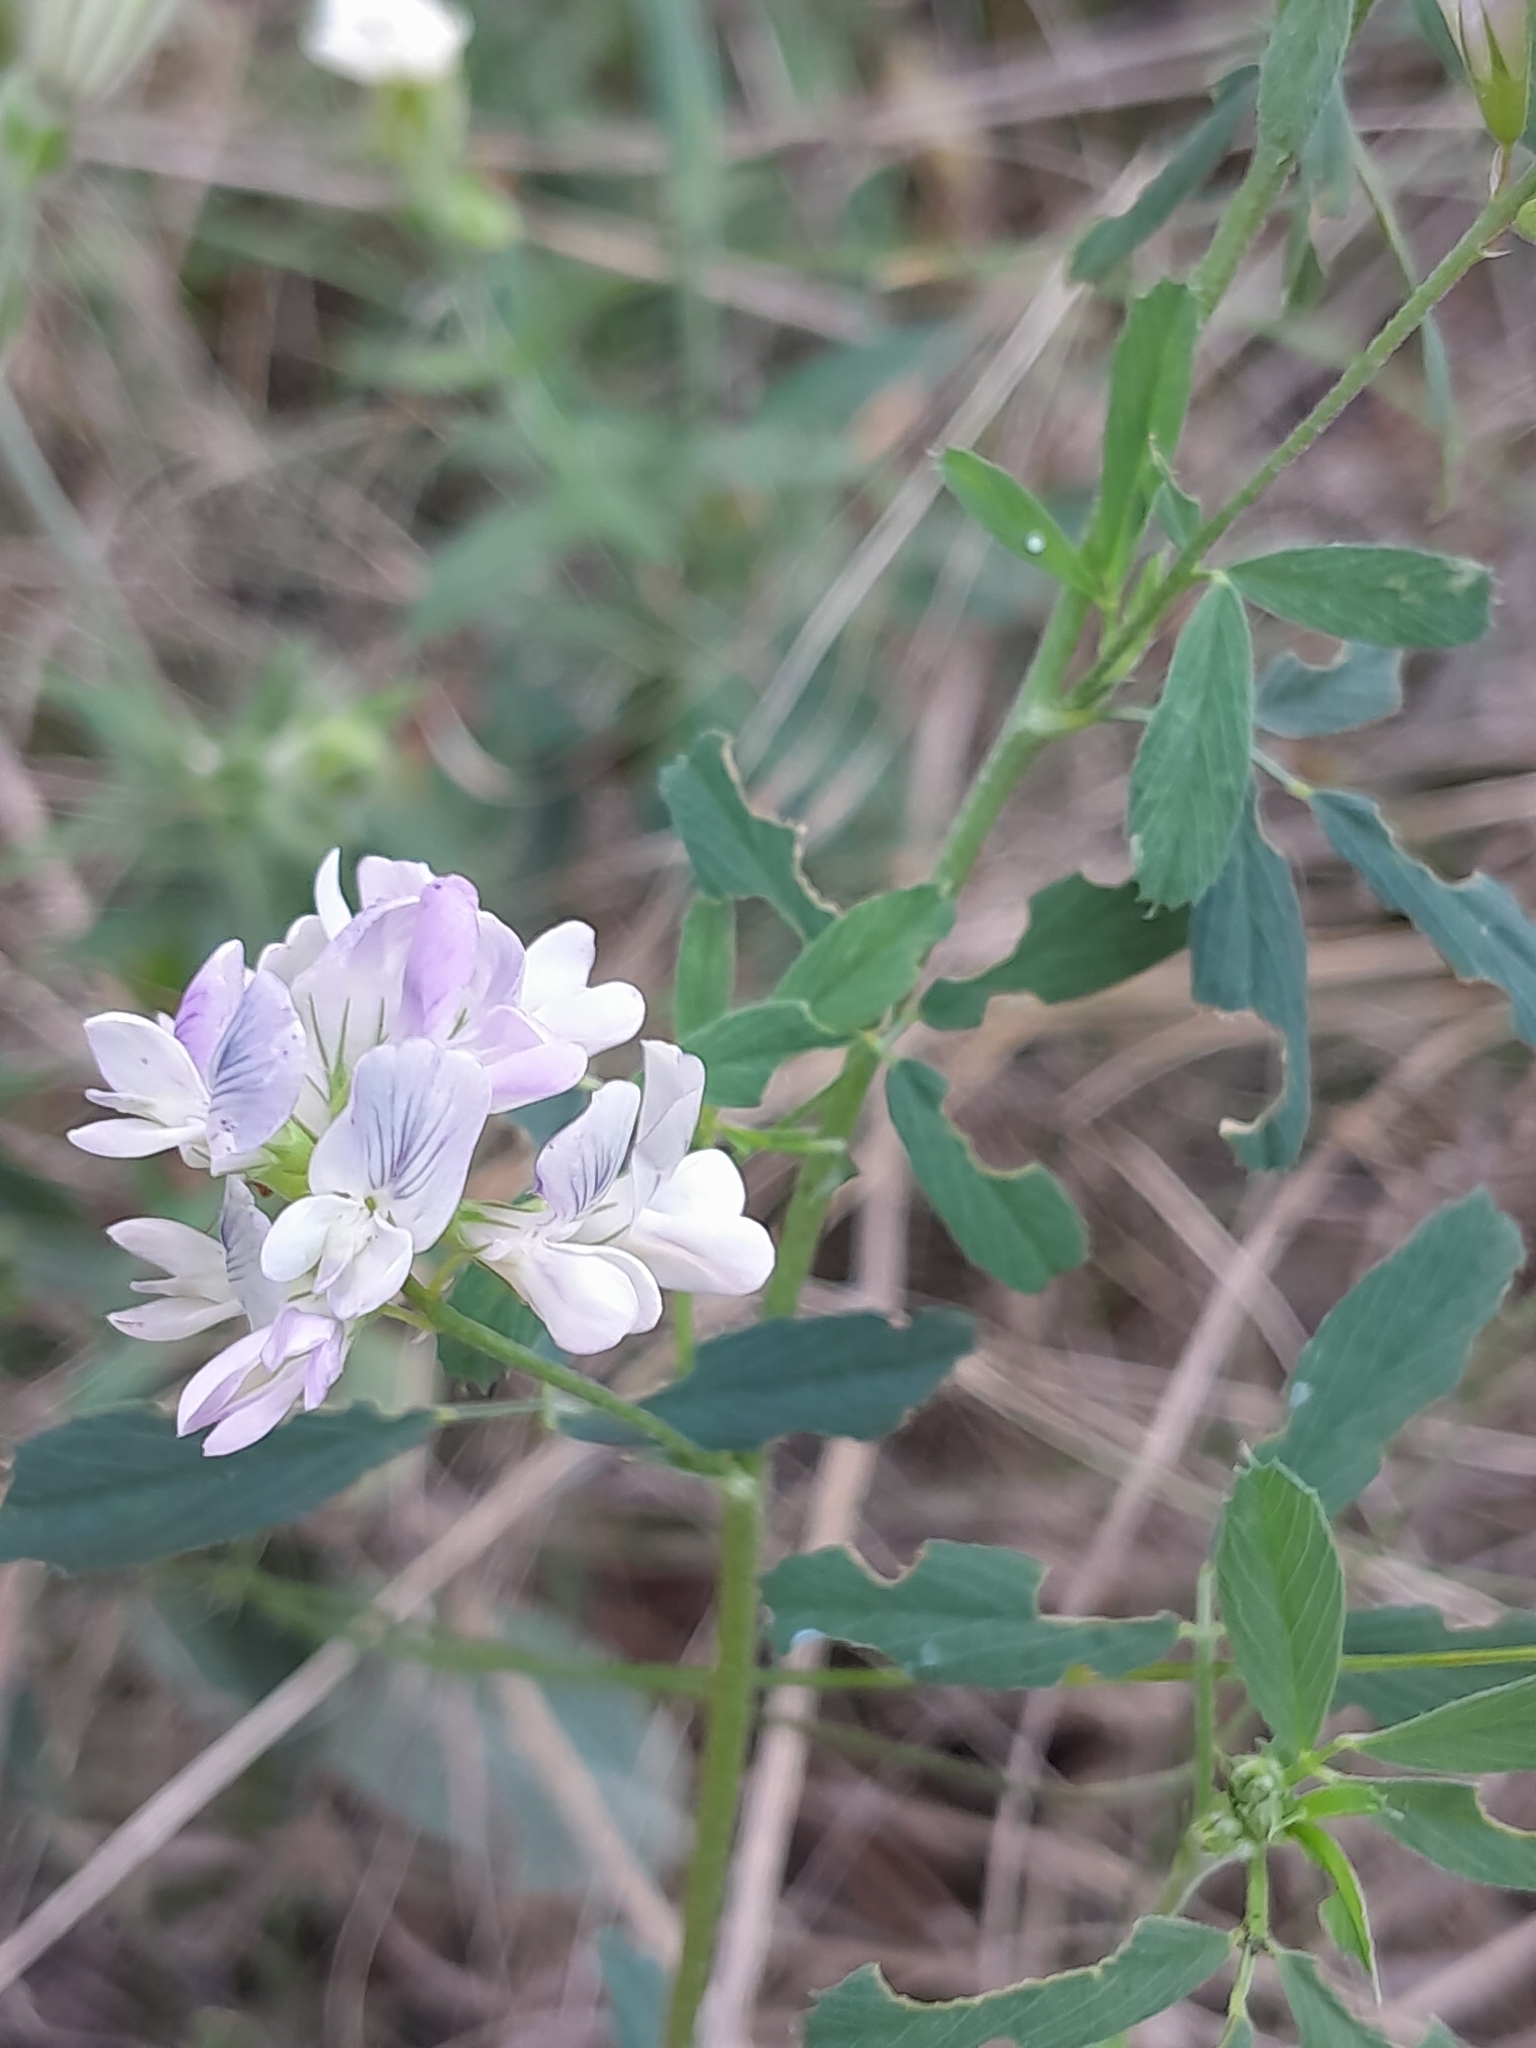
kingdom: Plantae
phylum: Tracheophyta
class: Magnoliopsida
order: Fabales
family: Fabaceae
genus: Medicago
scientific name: Medicago sativa
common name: Alfalfa
